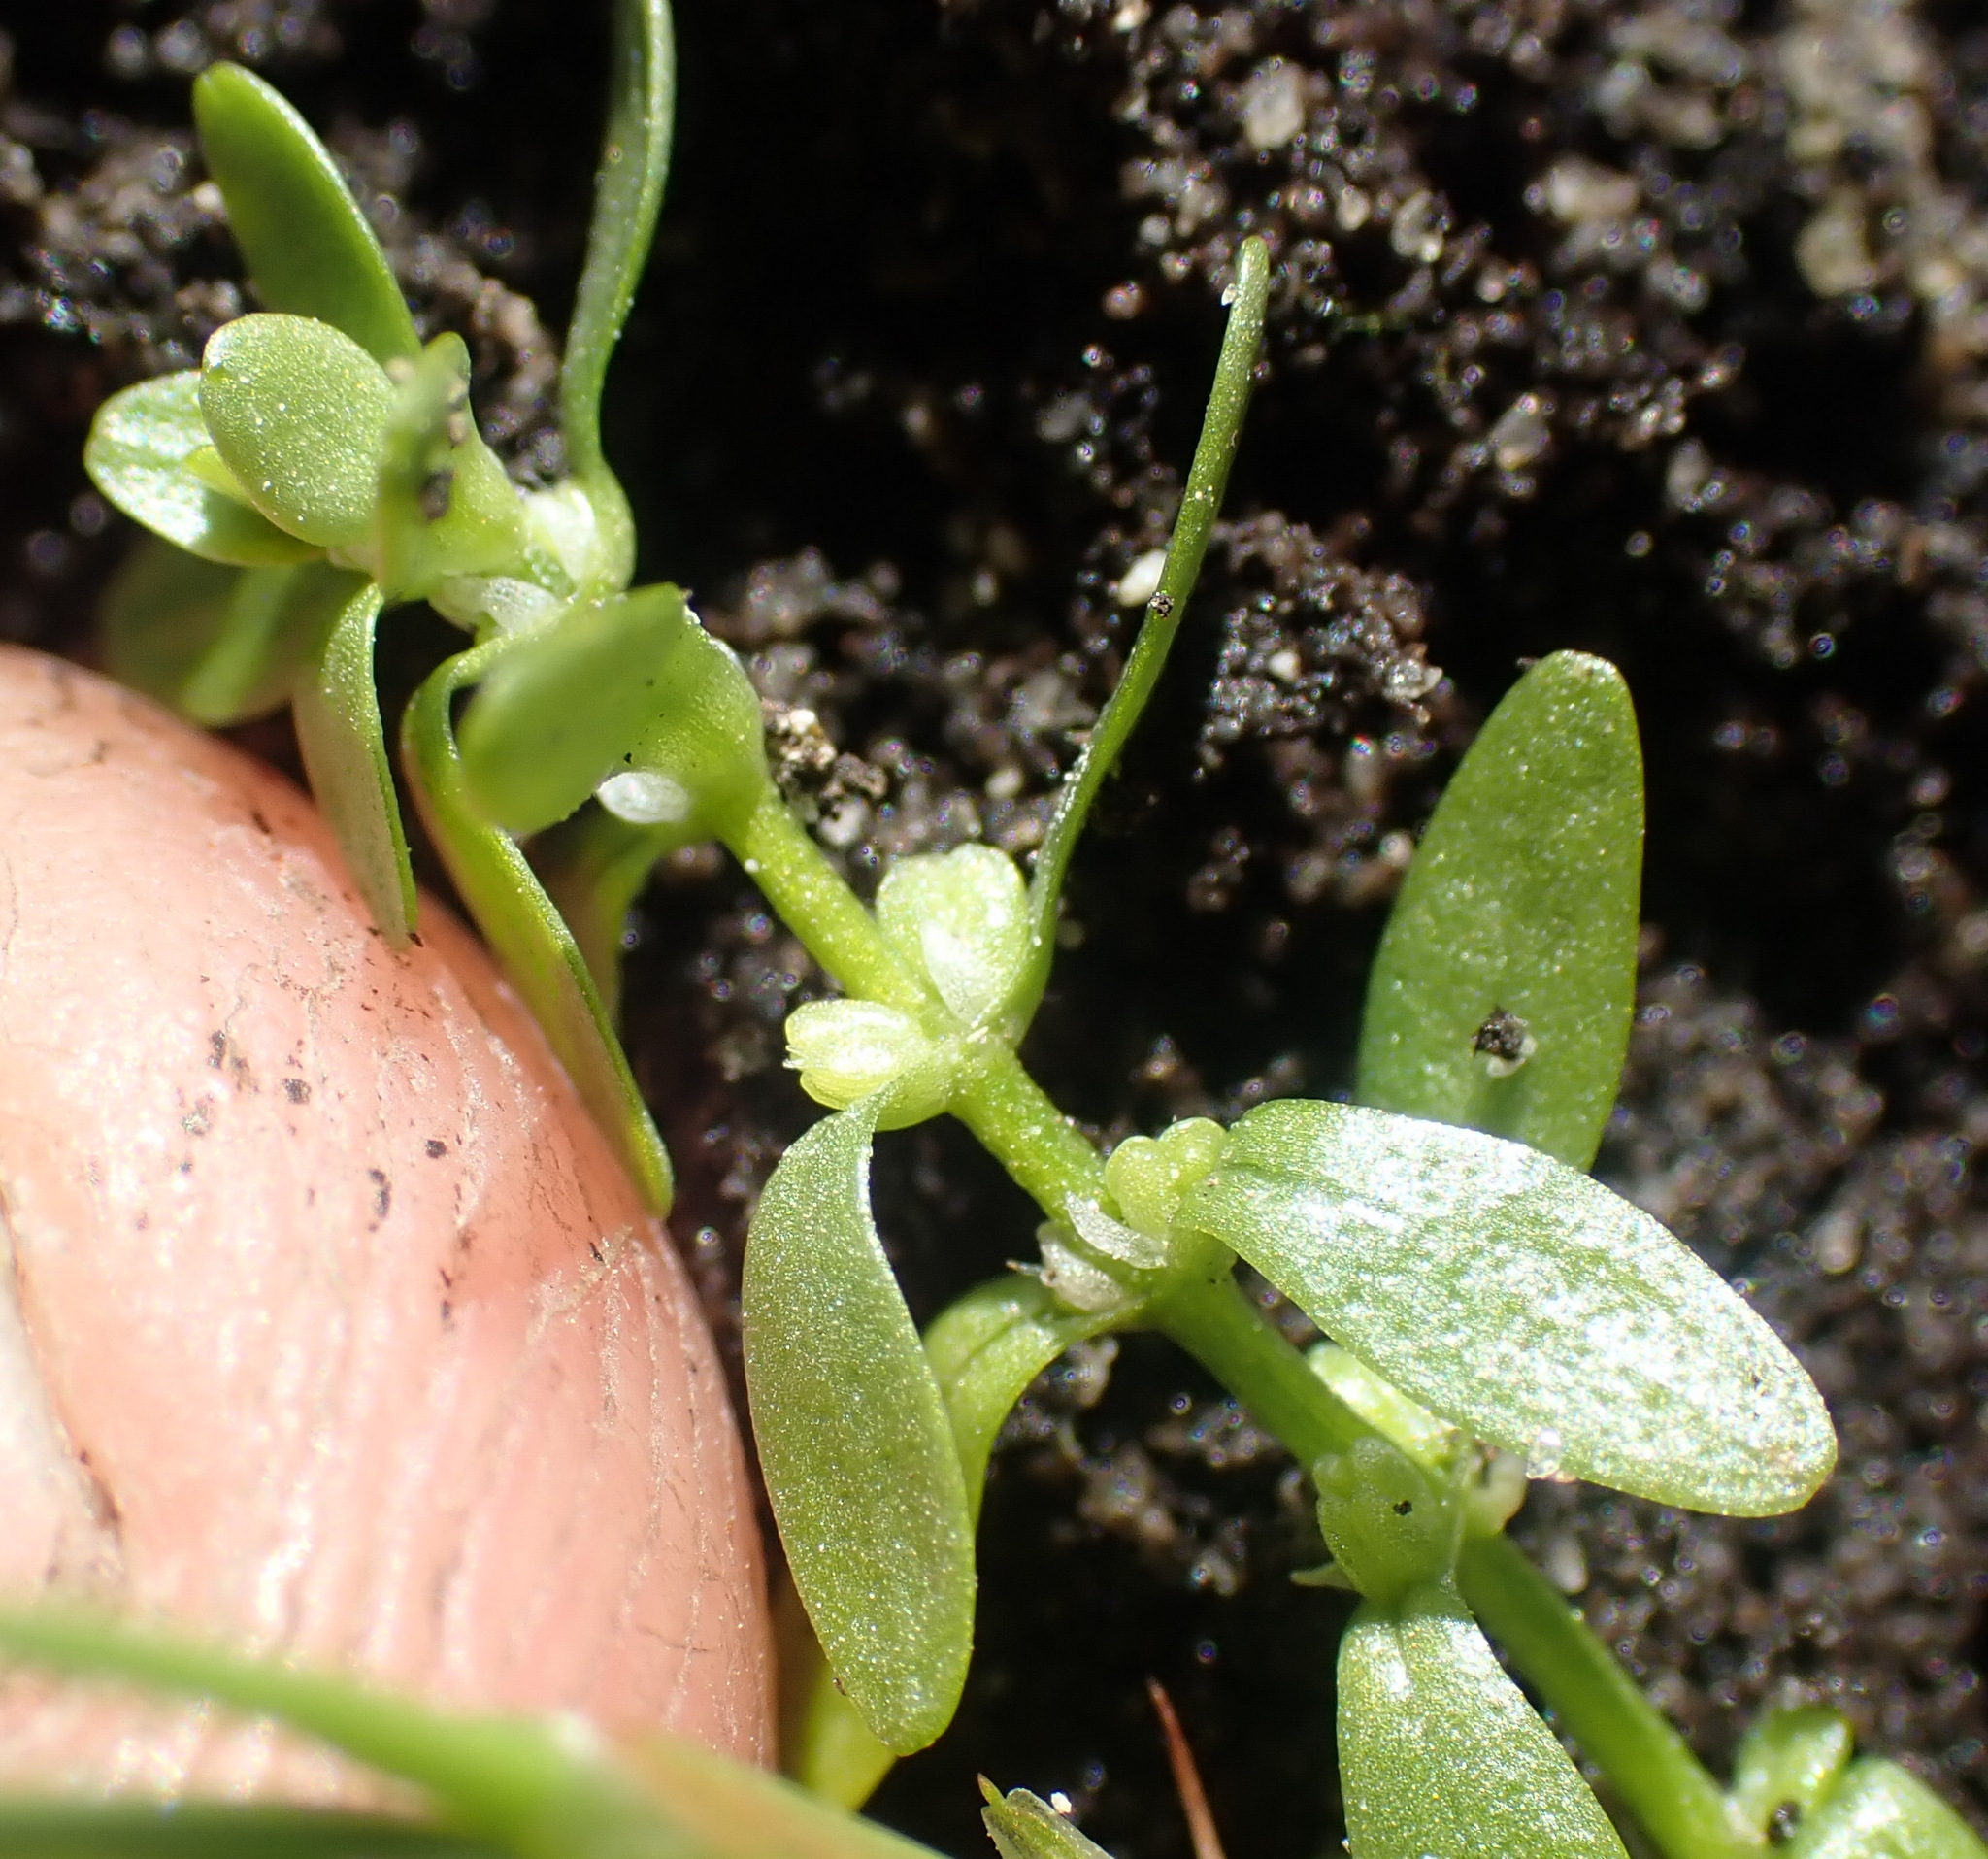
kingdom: Plantae
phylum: Tracheophyta
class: Magnoliopsida
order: Lamiales
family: Plantaginaceae
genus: Callitriche
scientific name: Callitriche palustris
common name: Spring water-starwort
